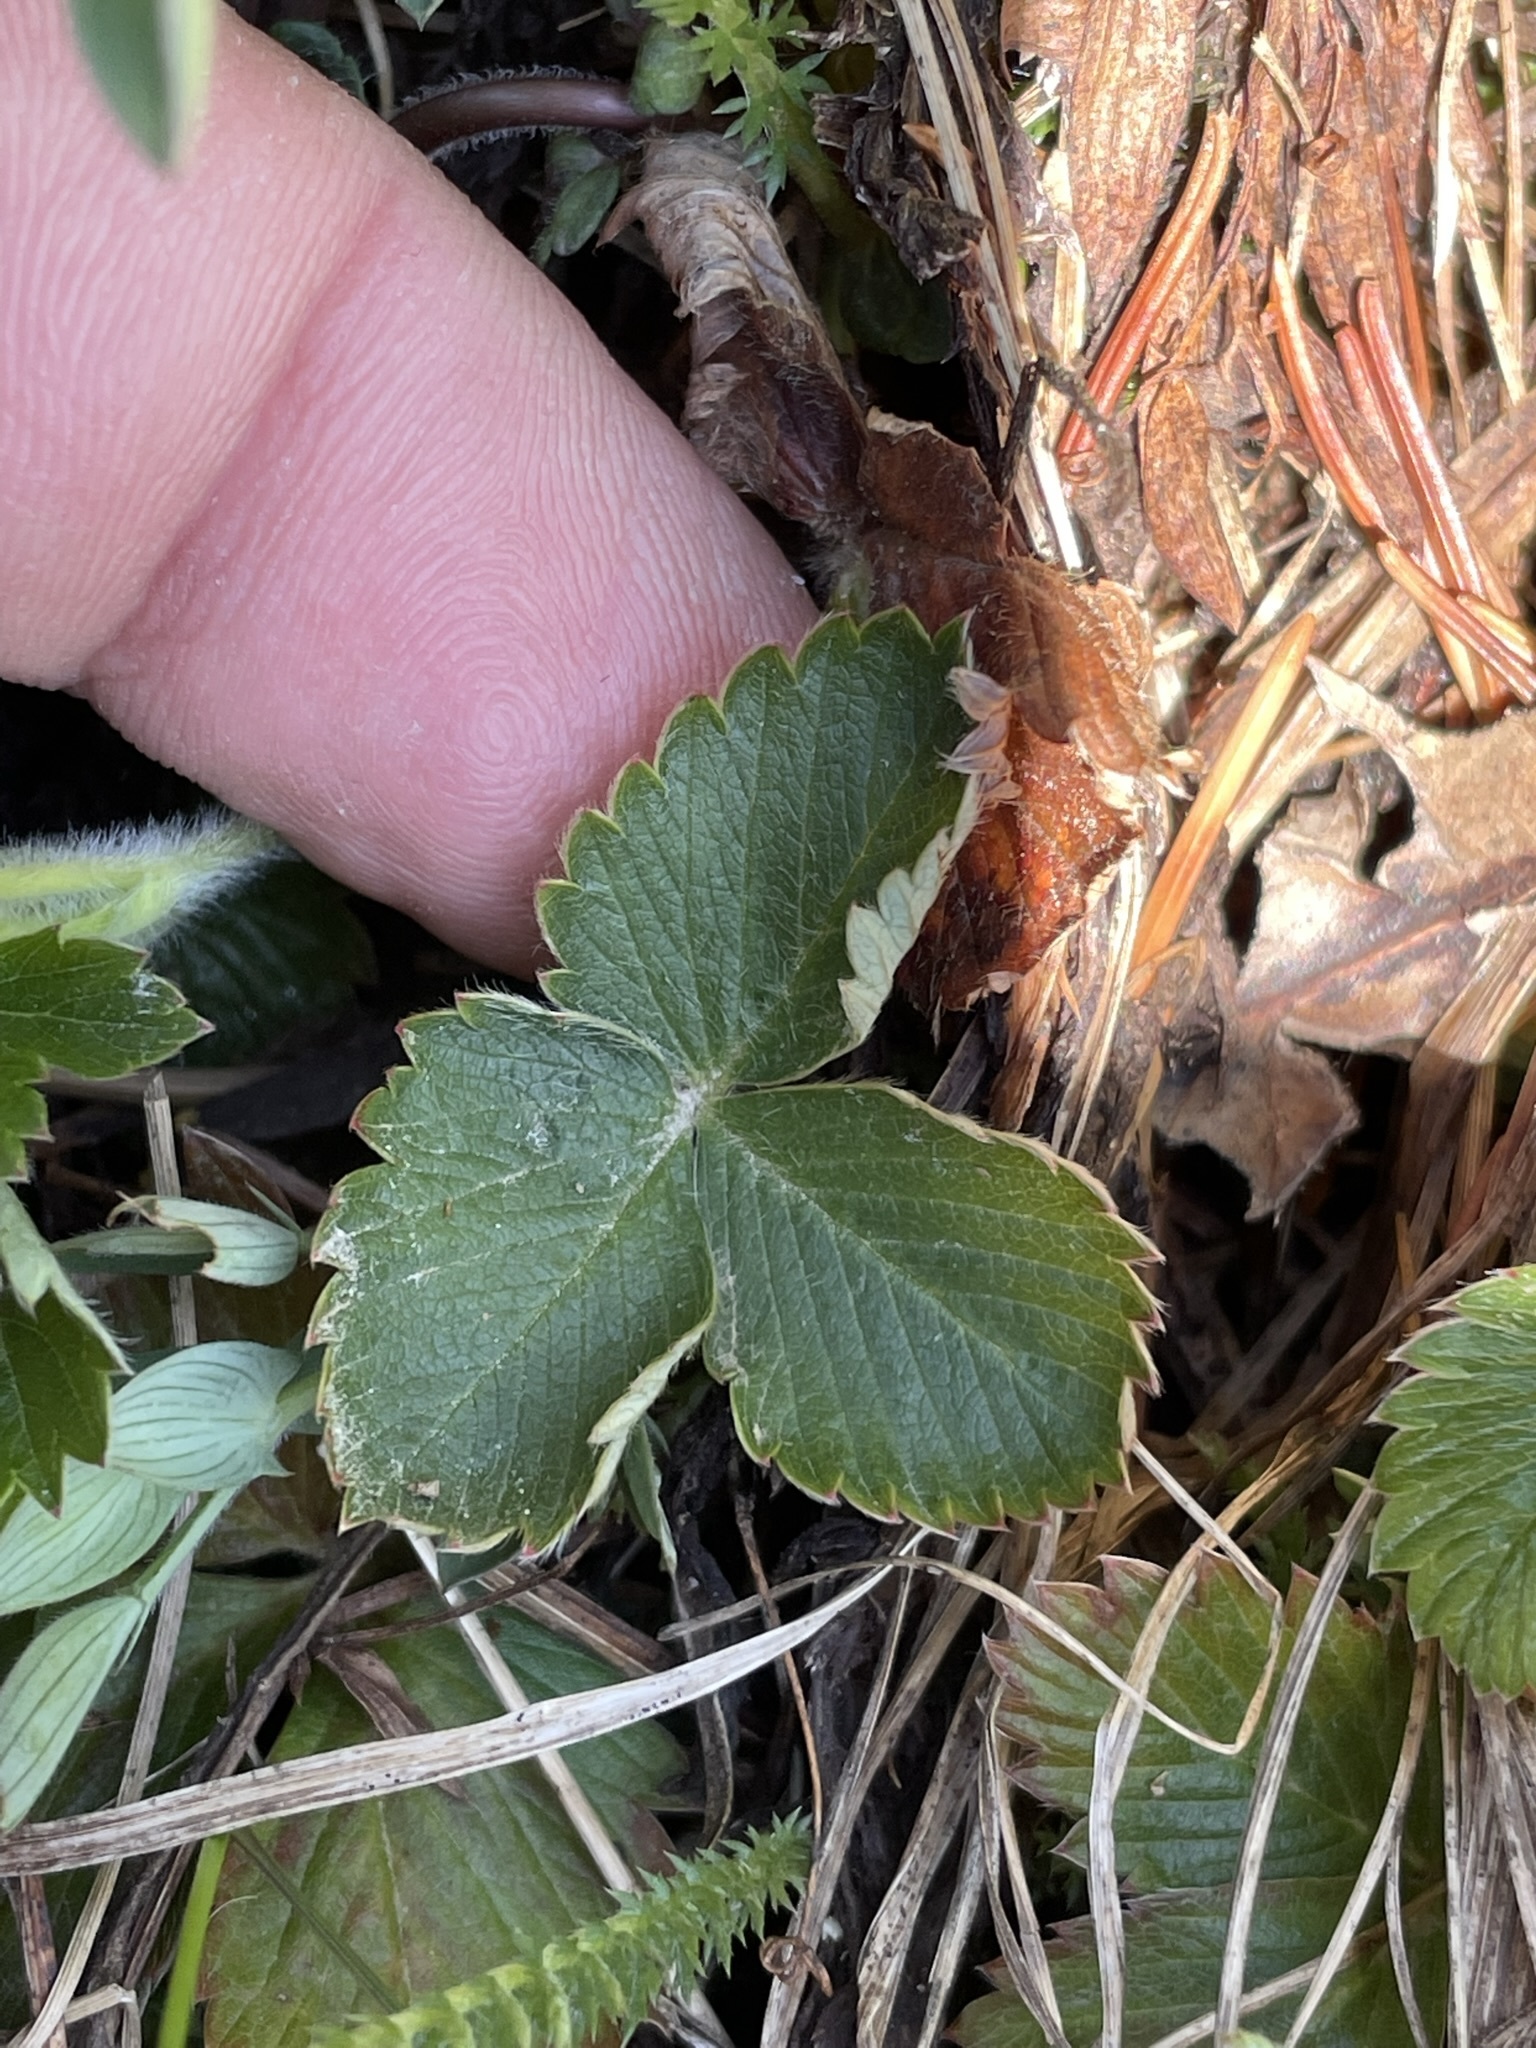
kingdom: Plantae
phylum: Tracheophyta
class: Magnoliopsida
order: Rosales
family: Rosaceae
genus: Fragaria
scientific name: Fragaria vesca
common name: Wild strawberry
